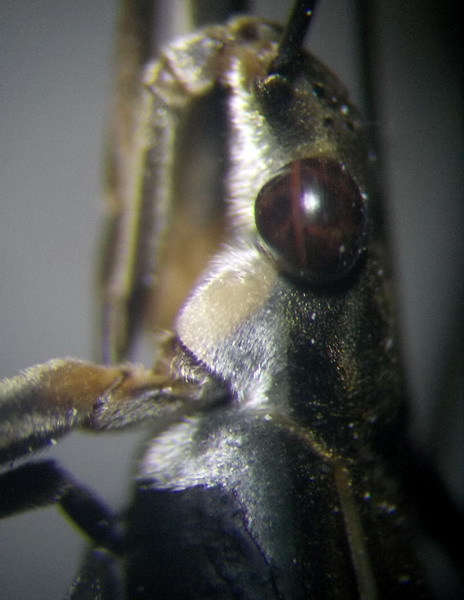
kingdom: Animalia
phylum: Arthropoda
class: Insecta
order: Hemiptera
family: Gerridae
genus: Aquarius
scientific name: Aquarius paludum
